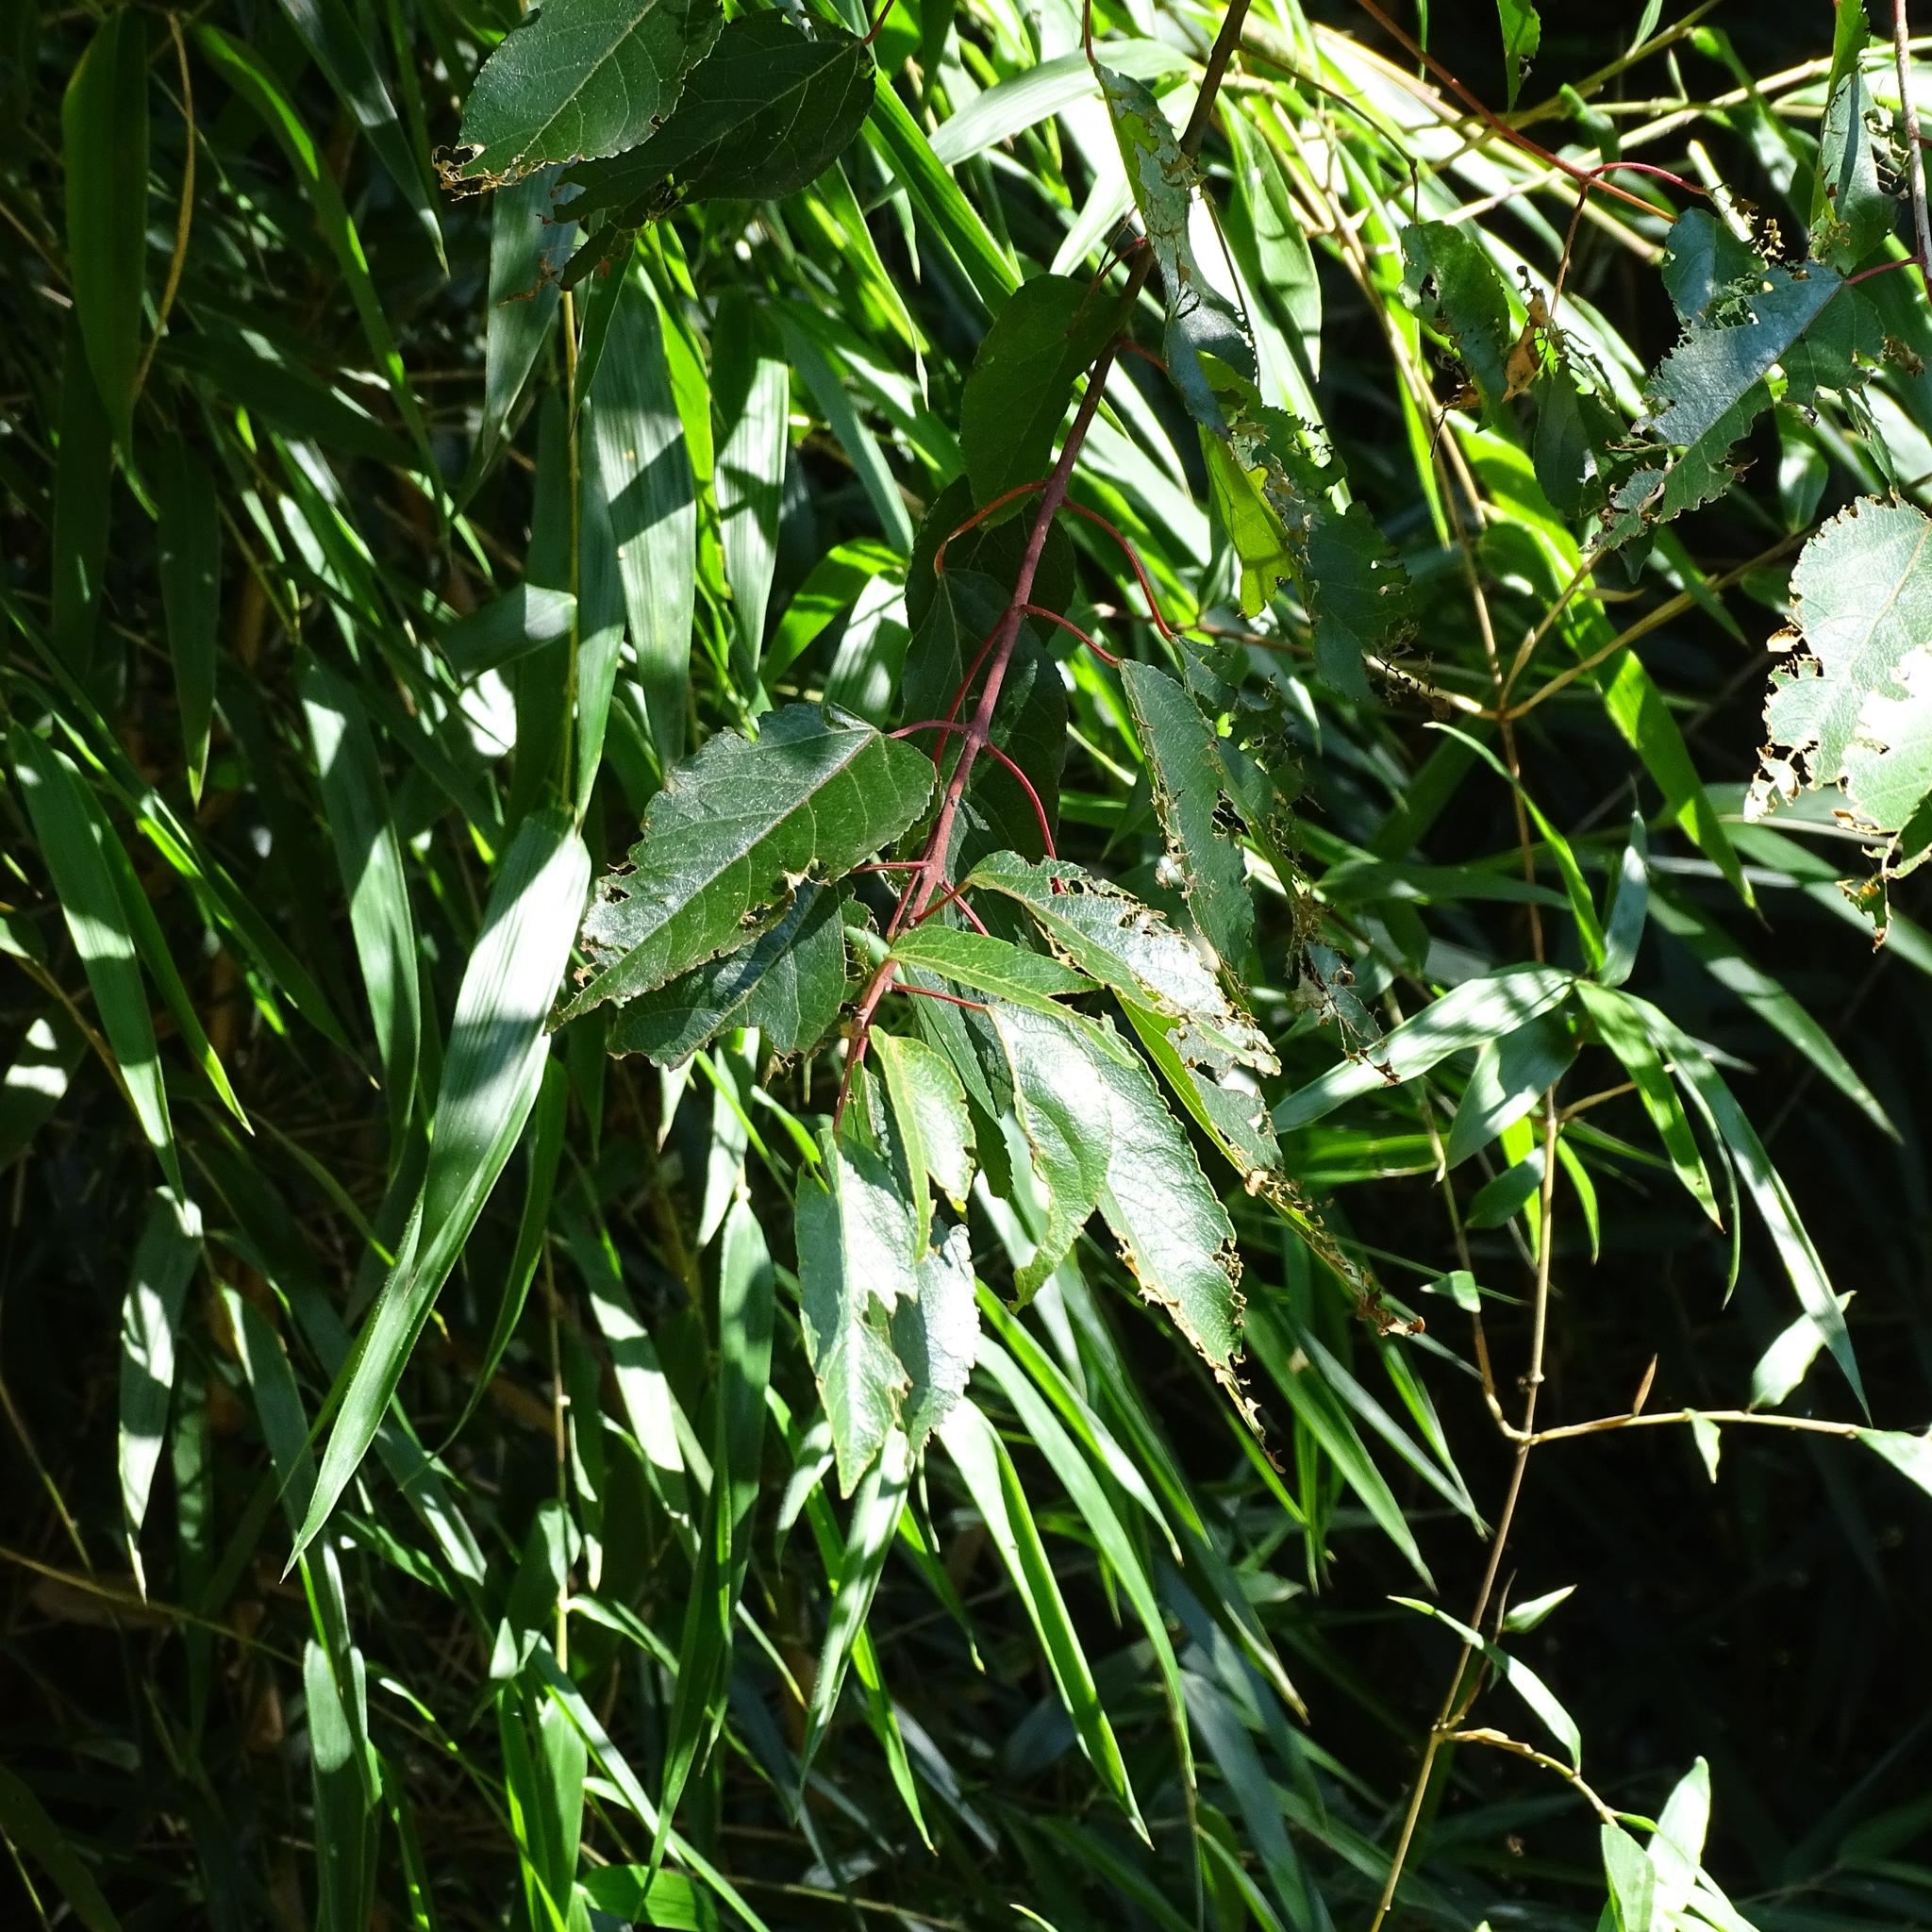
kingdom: Plantae
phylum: Tracheophyta
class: Magnoliopsida
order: Oxalidales
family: Elaeocarpaceae
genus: Aristotelia
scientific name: Aristotelia chilensis
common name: Maquei
